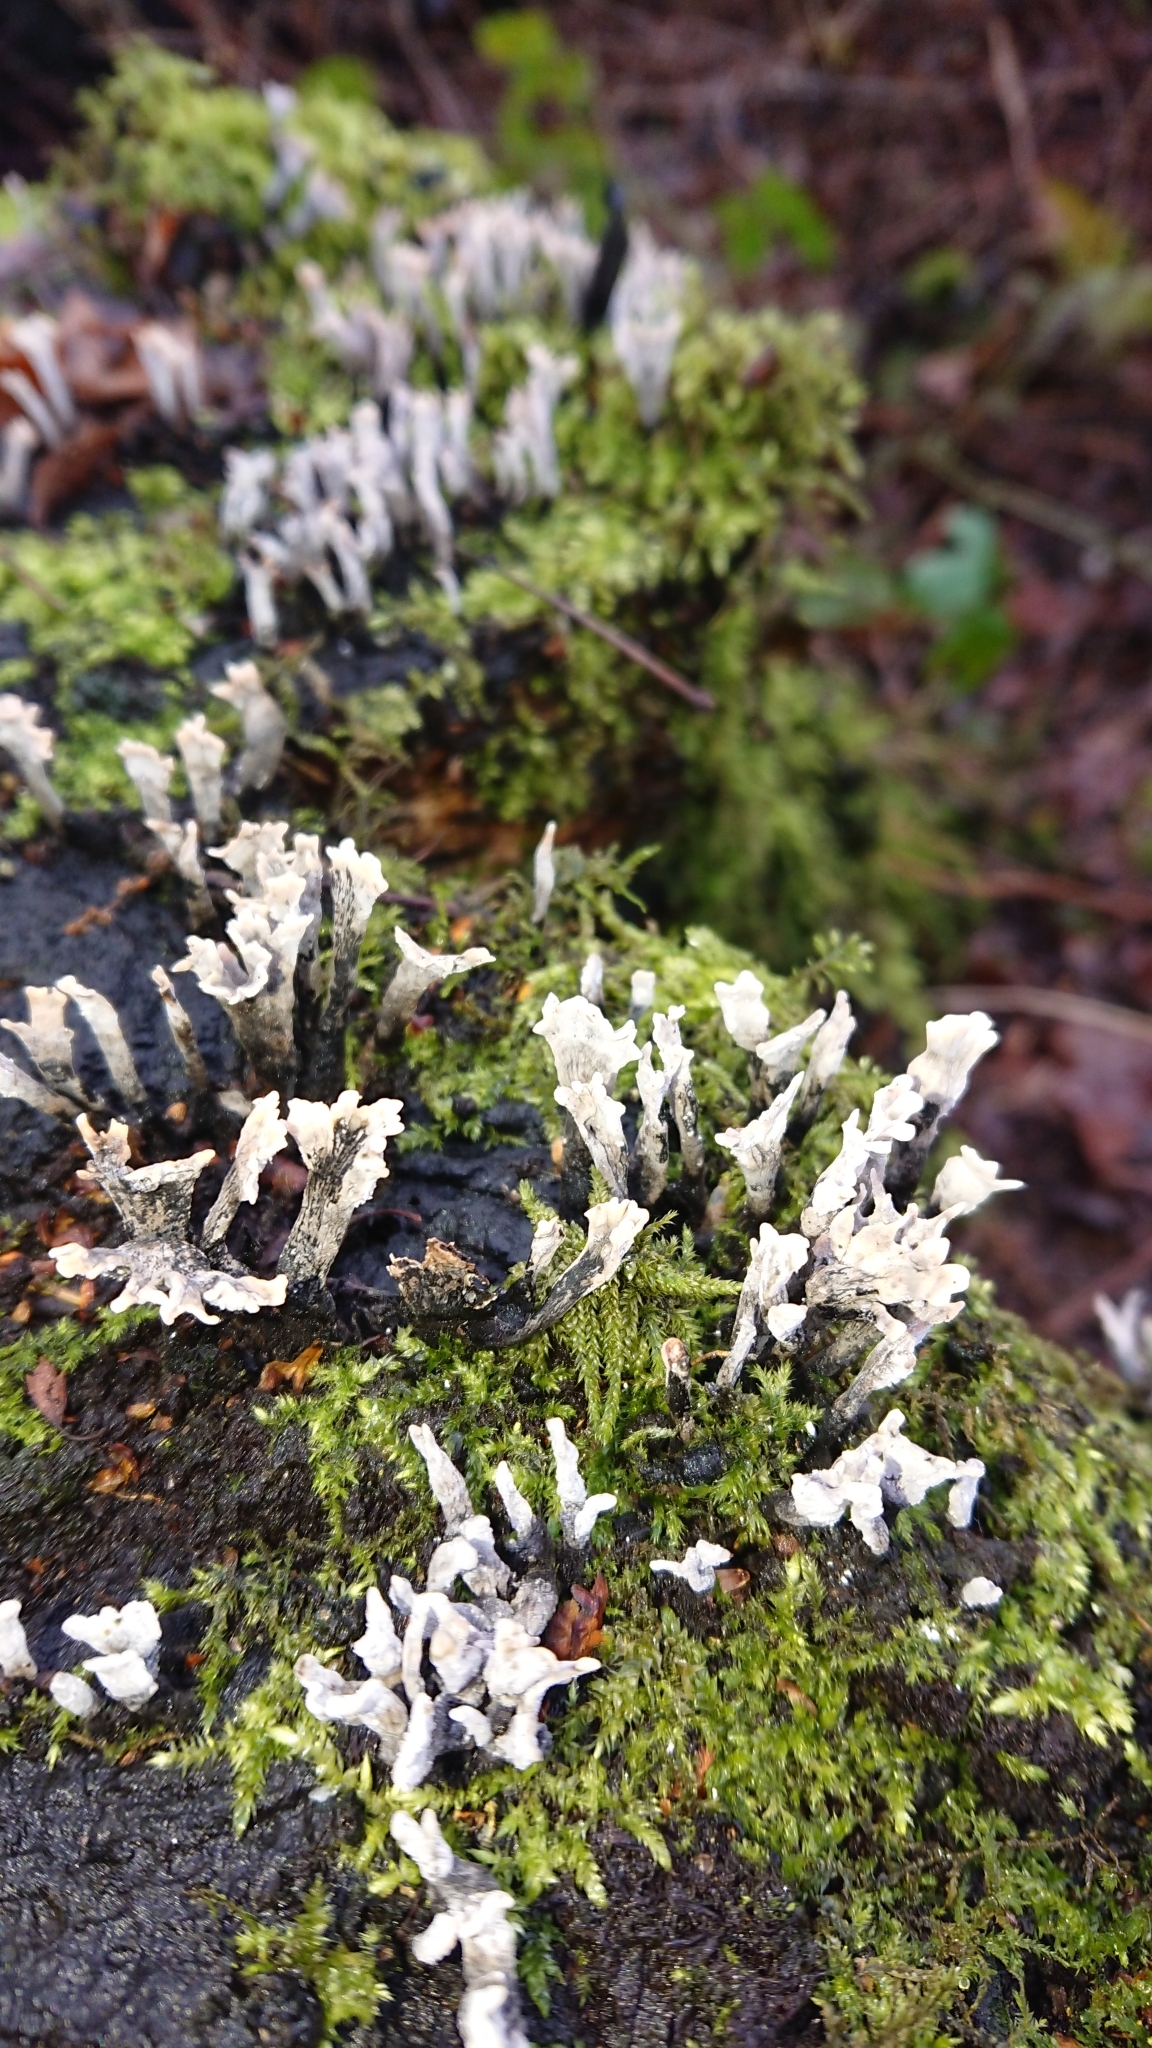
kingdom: Fungi
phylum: Ascomycota
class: Sordariomycetes
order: Xylariales
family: Xylariaceae
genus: Xylaria
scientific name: Xylaria hypoxylon
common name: Candle-snuff fungus
